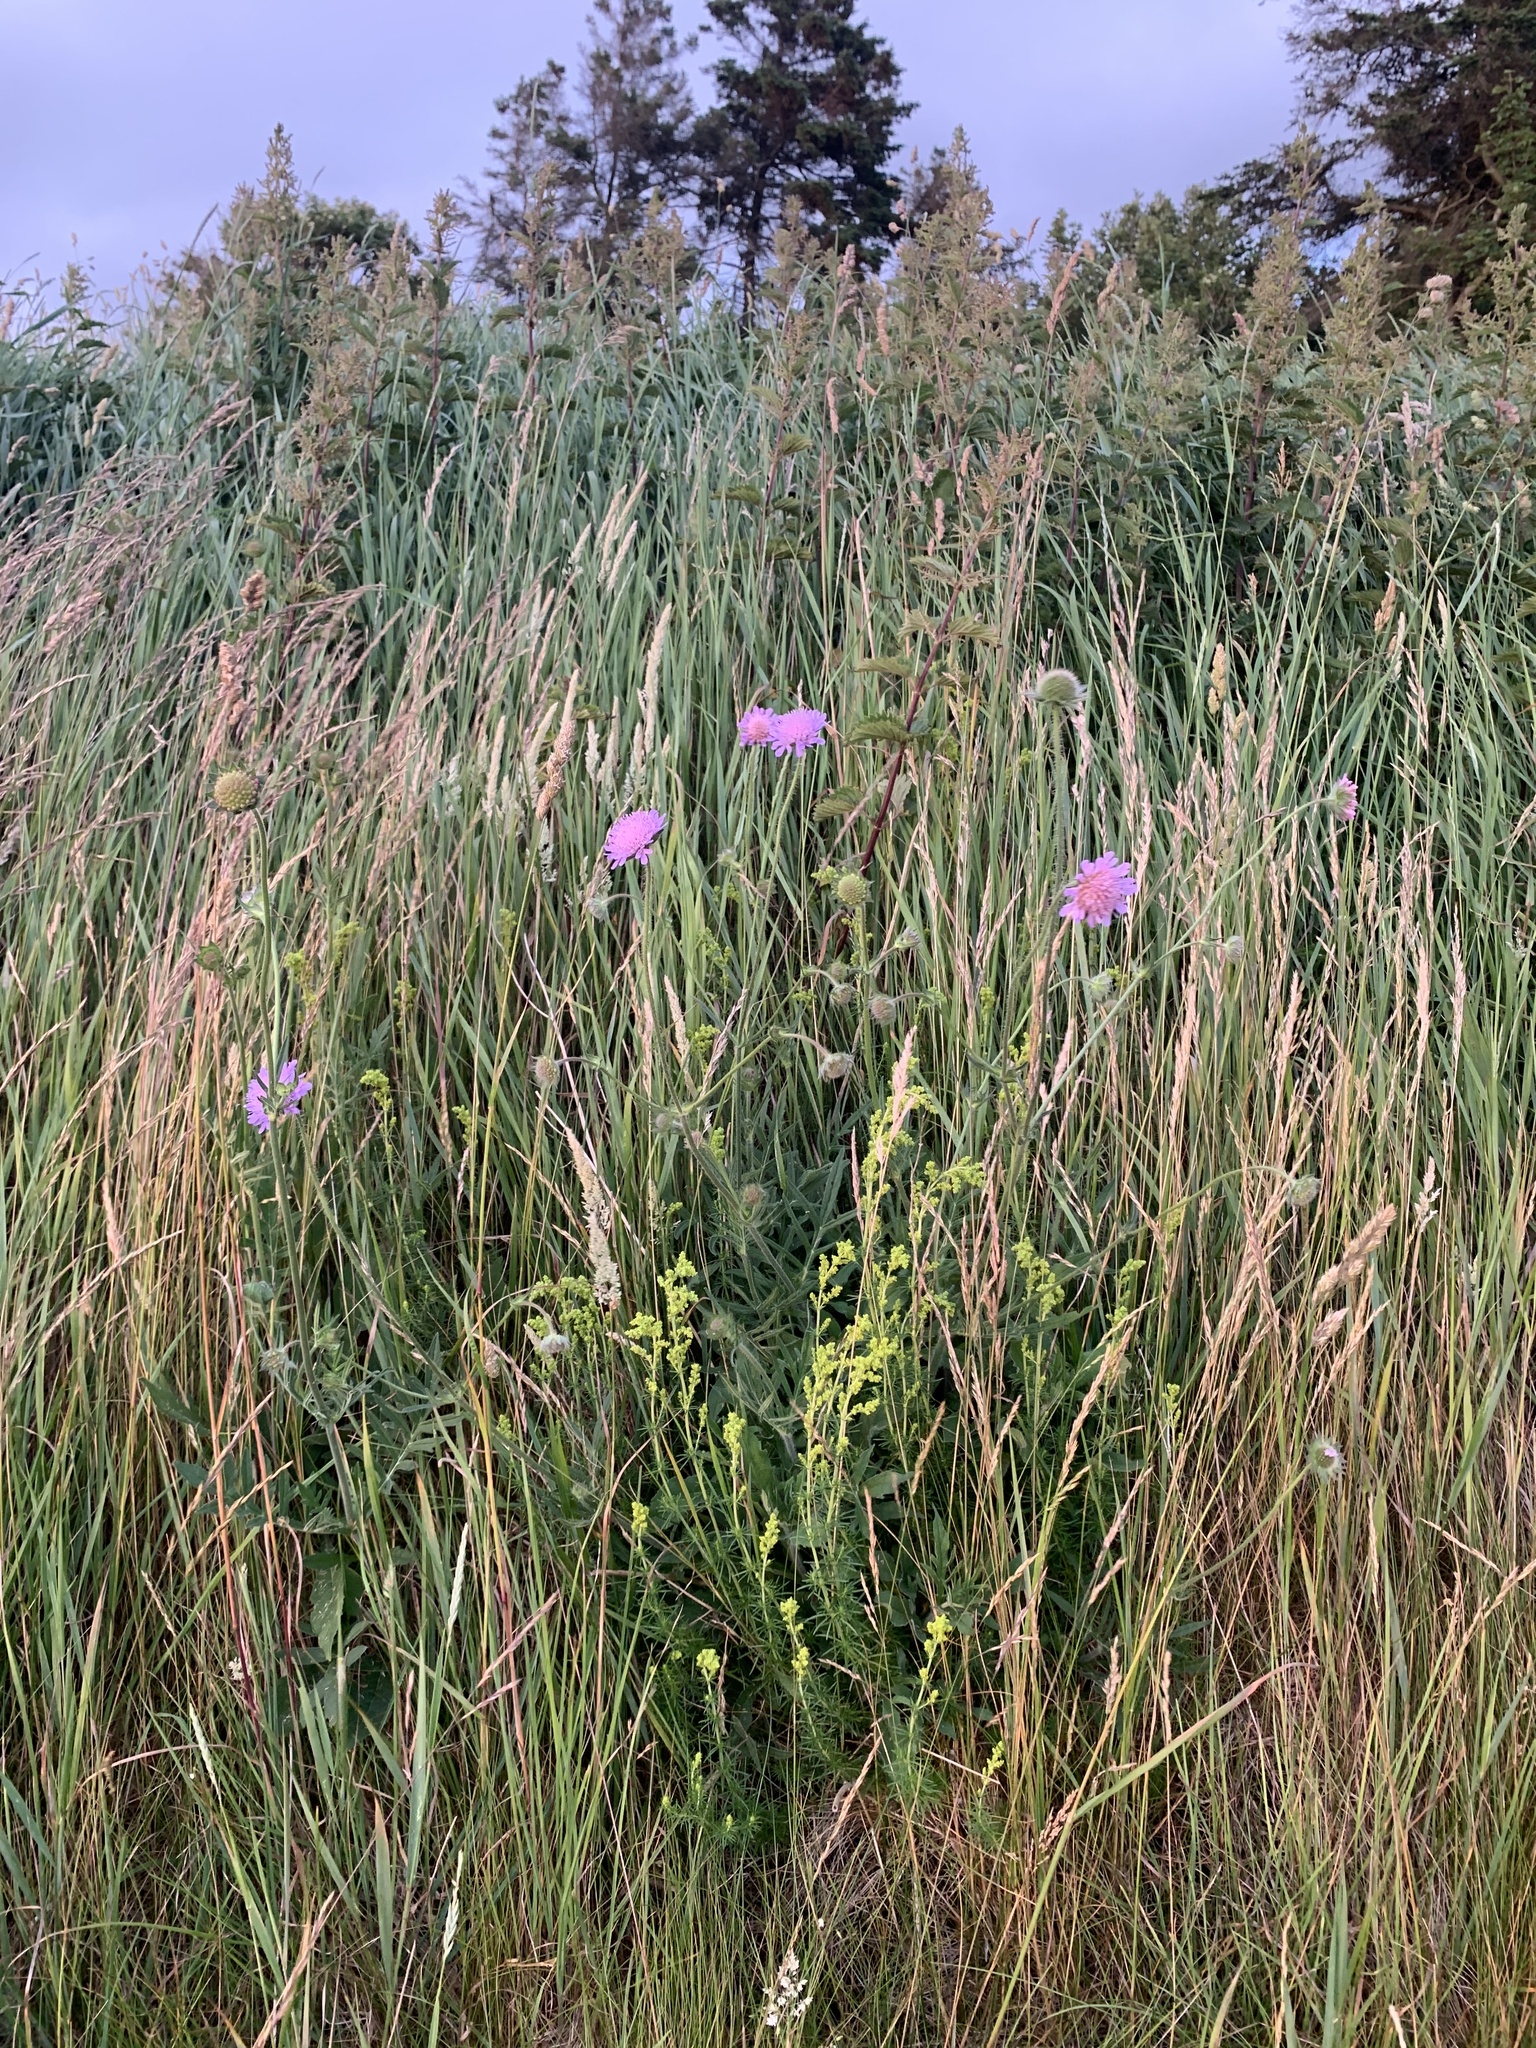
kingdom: Plantae
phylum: Tracheophyta
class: Magnoliopsida
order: Dipsacales
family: Caprifoliaceae
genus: Knautia
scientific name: Knautia arvensis
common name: Field scabiosa
